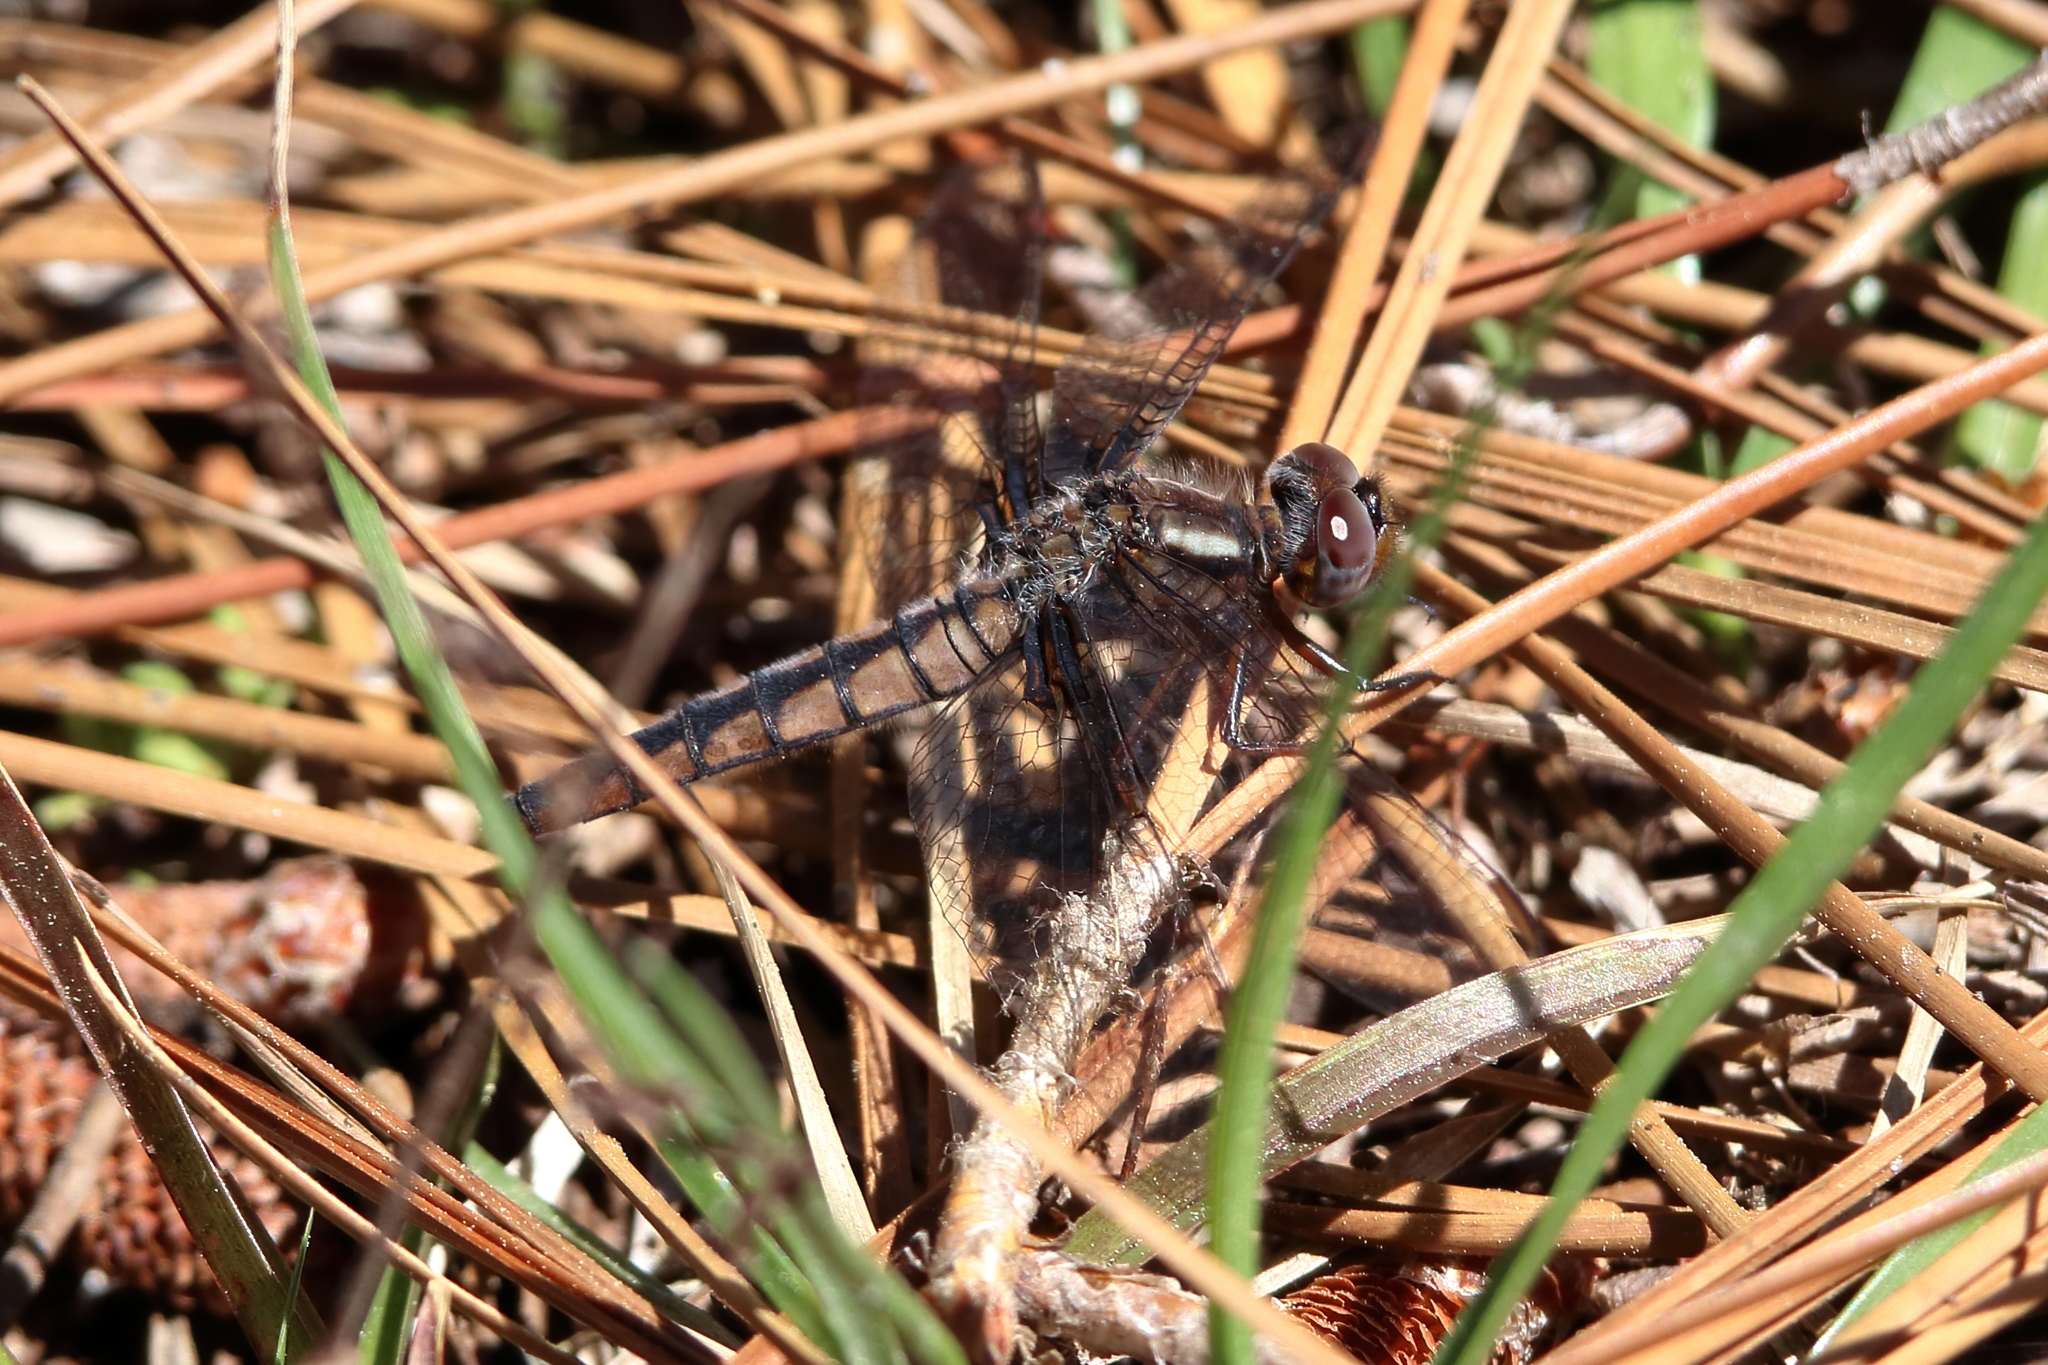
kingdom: Animalia
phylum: Arthropoda
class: Insecta
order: Odonata
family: Libellulidae
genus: Ladona
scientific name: Ladona deplanata
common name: Blue corporal
